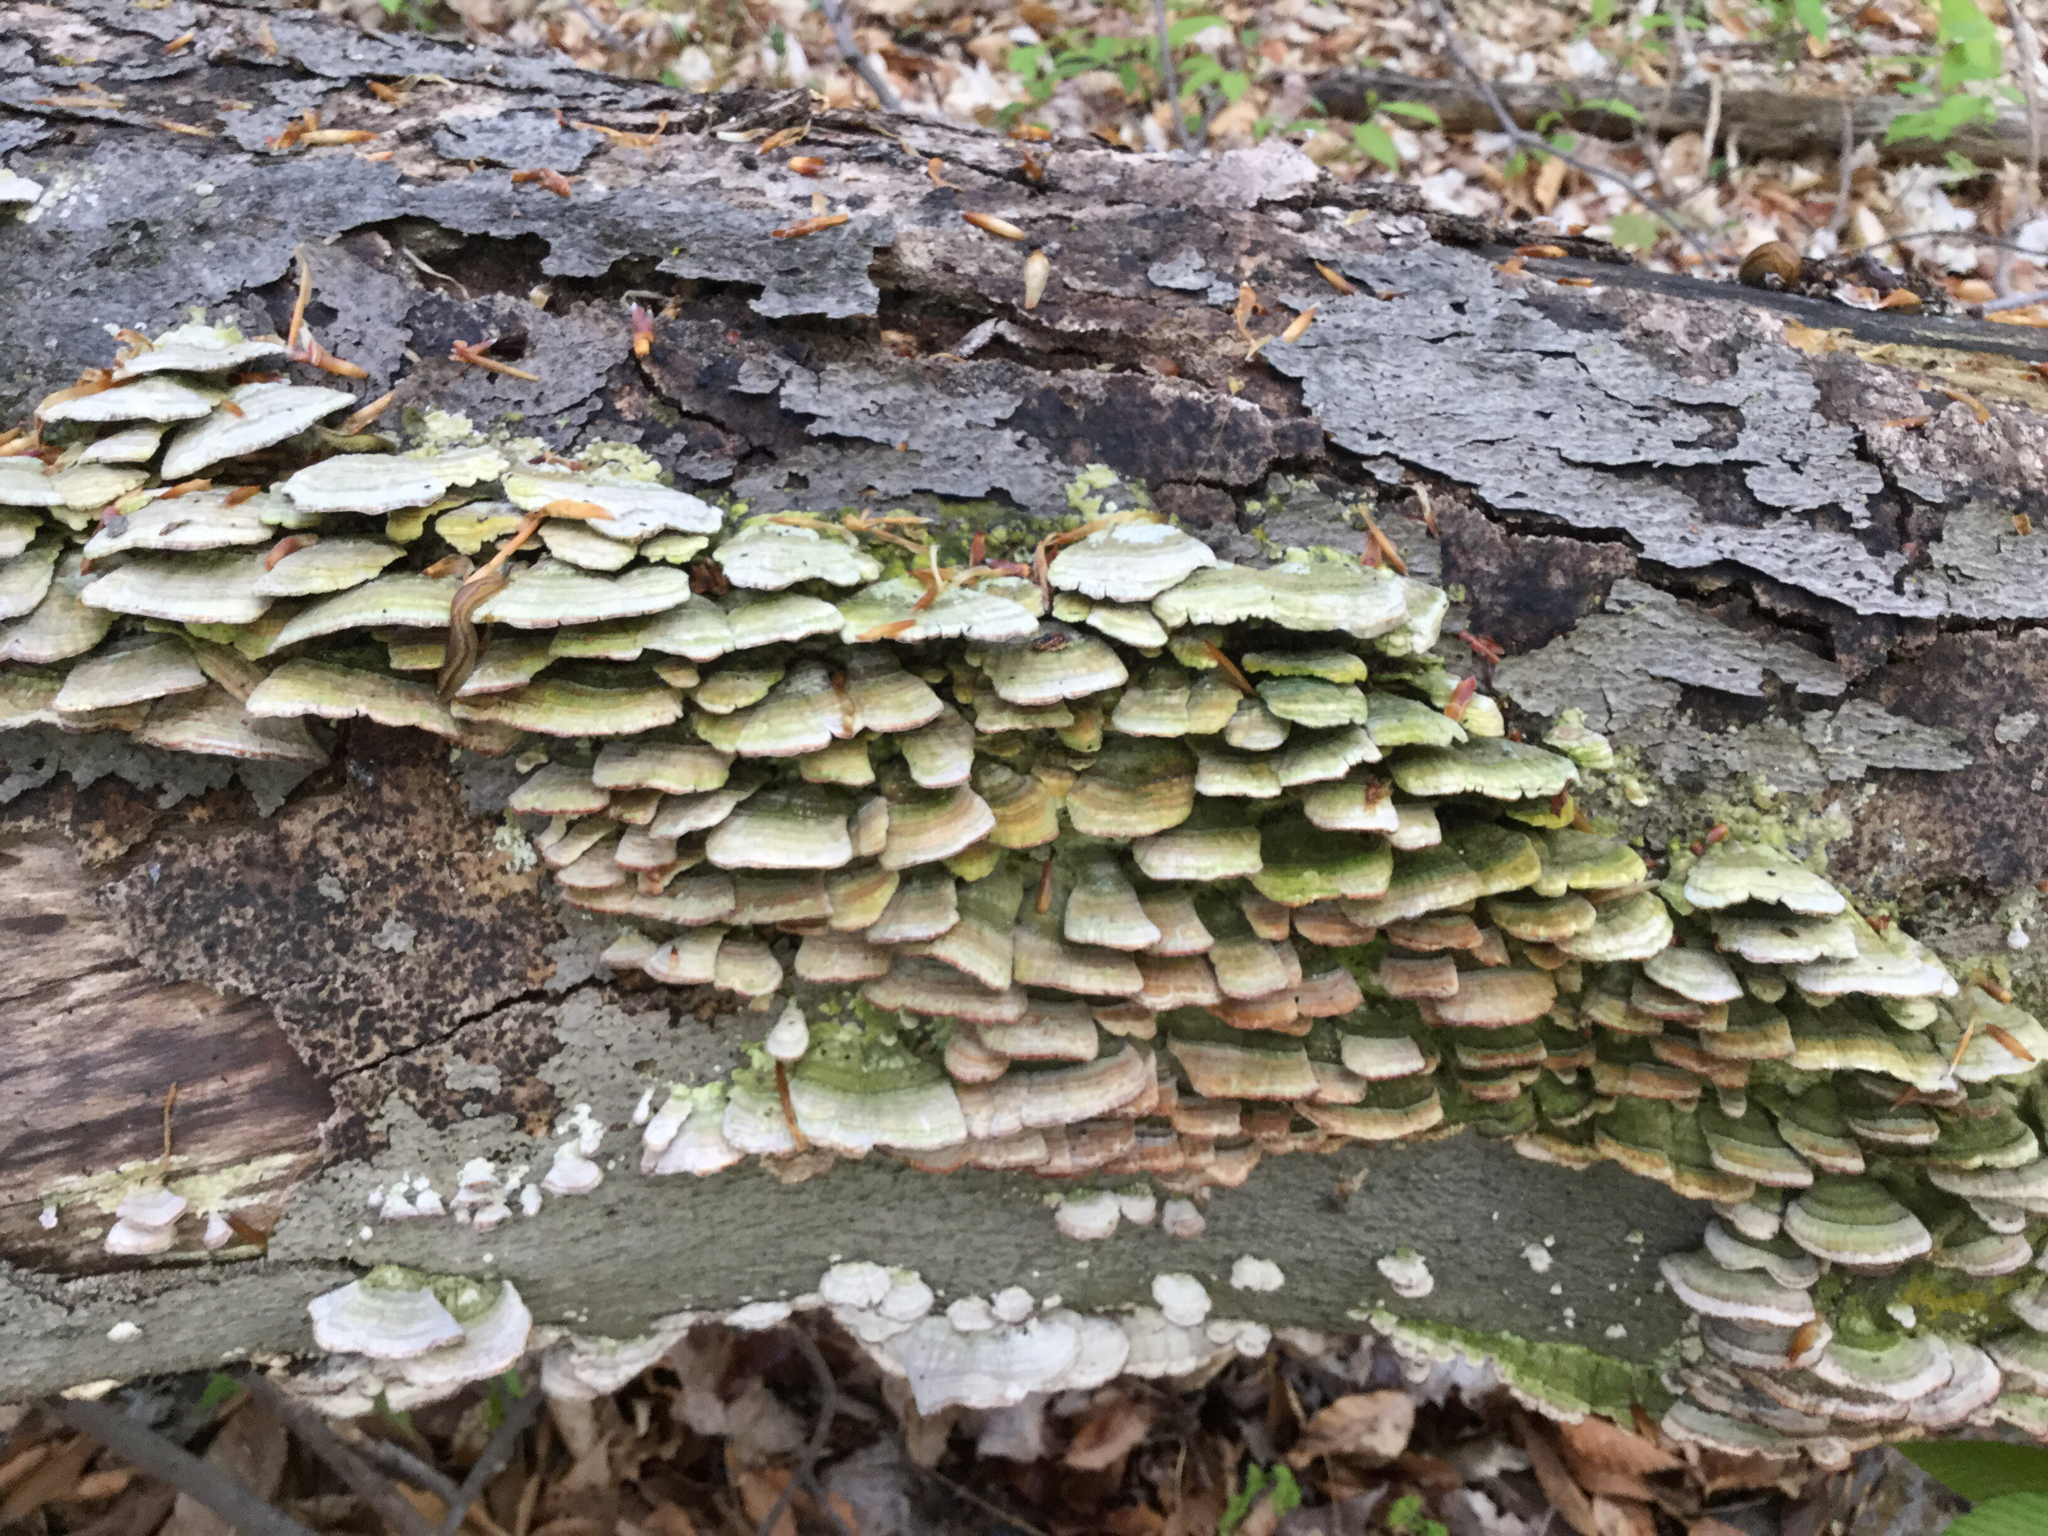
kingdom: Fungi
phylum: Basidiomycota
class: Agaricomycetes
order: Hymenochaetales
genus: Trichaptum
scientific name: Trichaptum biforme
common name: Violet-toothed polypore
